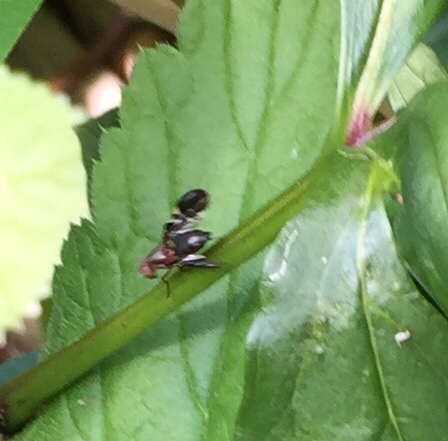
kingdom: Animalia
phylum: Arthropoda
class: Insecta
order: Diptera
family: Ulidiidae
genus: Delphinia
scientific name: Delphinia picta
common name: Common picture-winged fly
